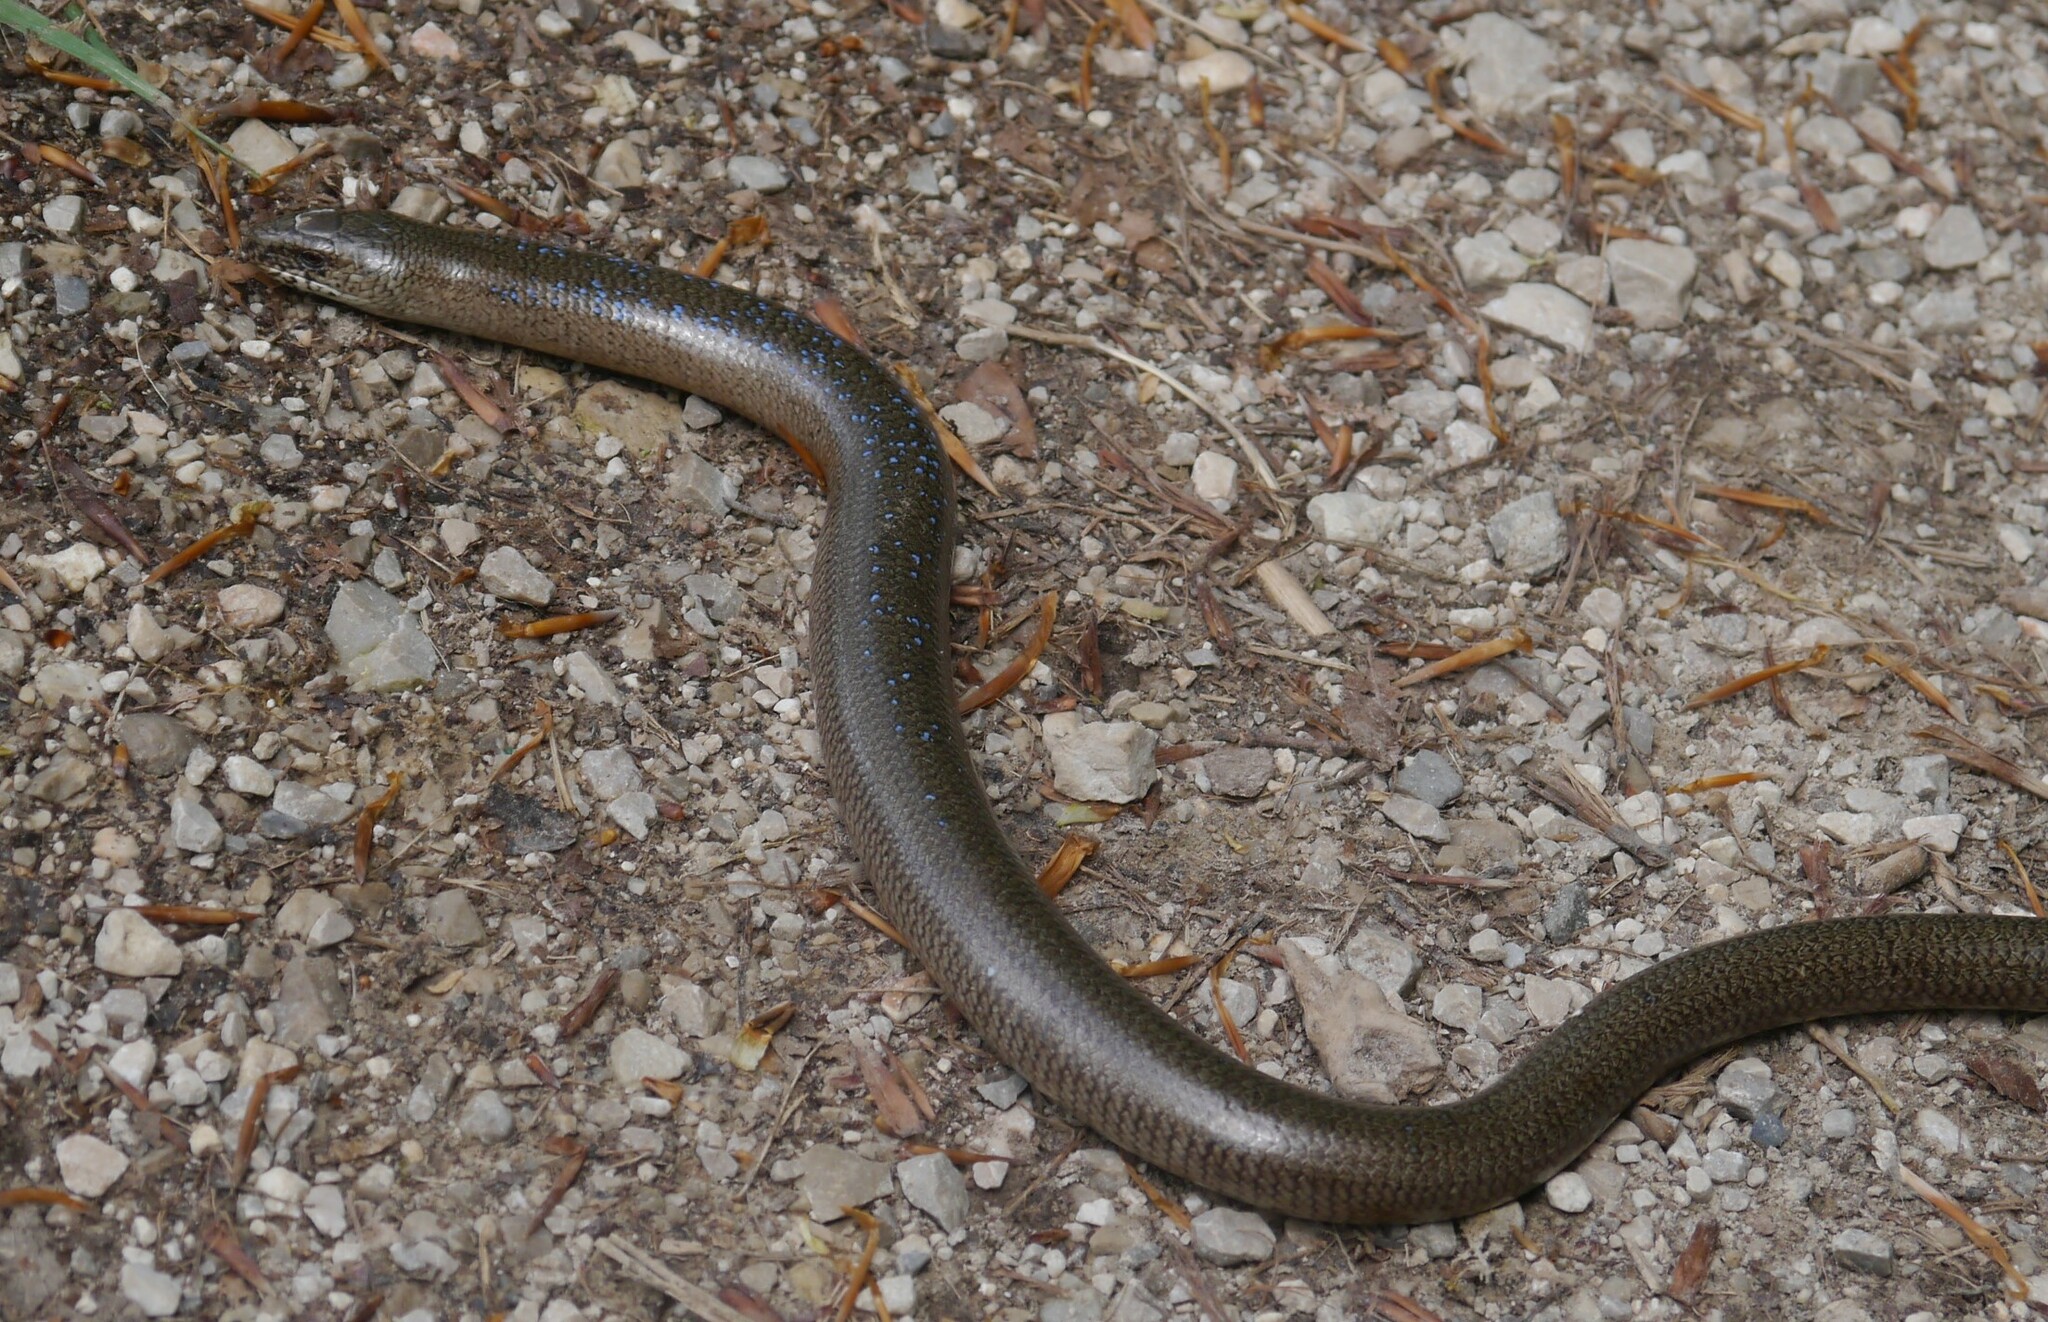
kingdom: Animalia
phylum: Chordata
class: Squamata
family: Anguidae
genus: Anguis
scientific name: Anguis fragilis
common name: Slow worm
